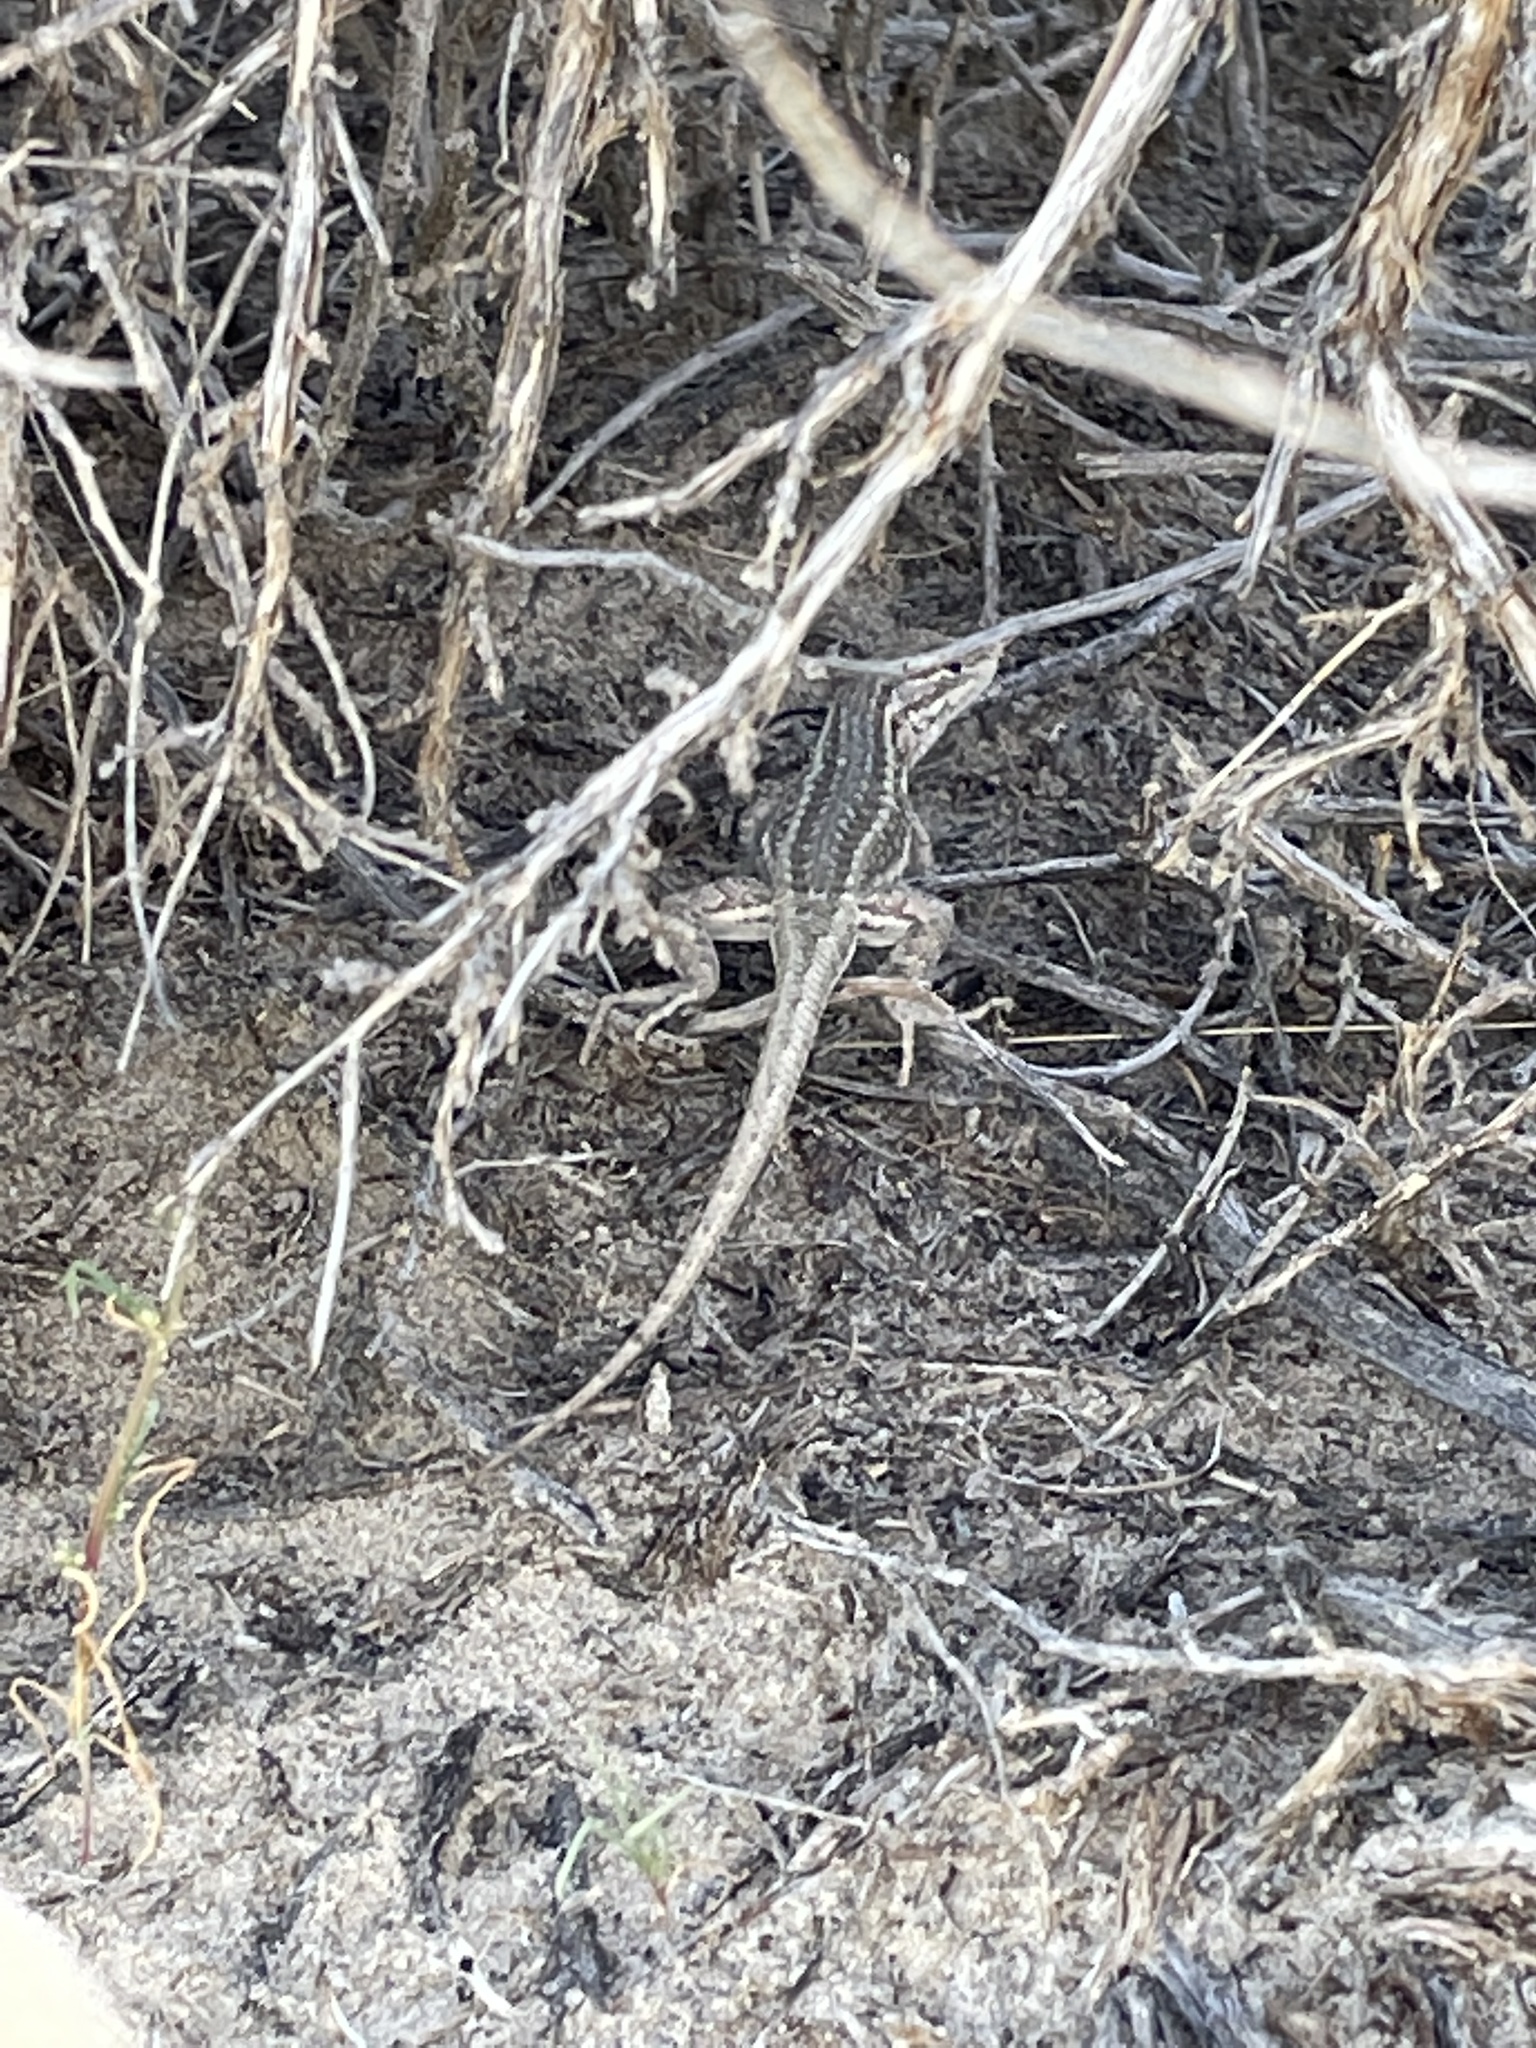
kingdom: Animalia
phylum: Chordata
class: Squamata
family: Phrynosomatidae
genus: Sceloporus
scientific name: Sceloporus graciosus
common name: Sagebrush lizard
